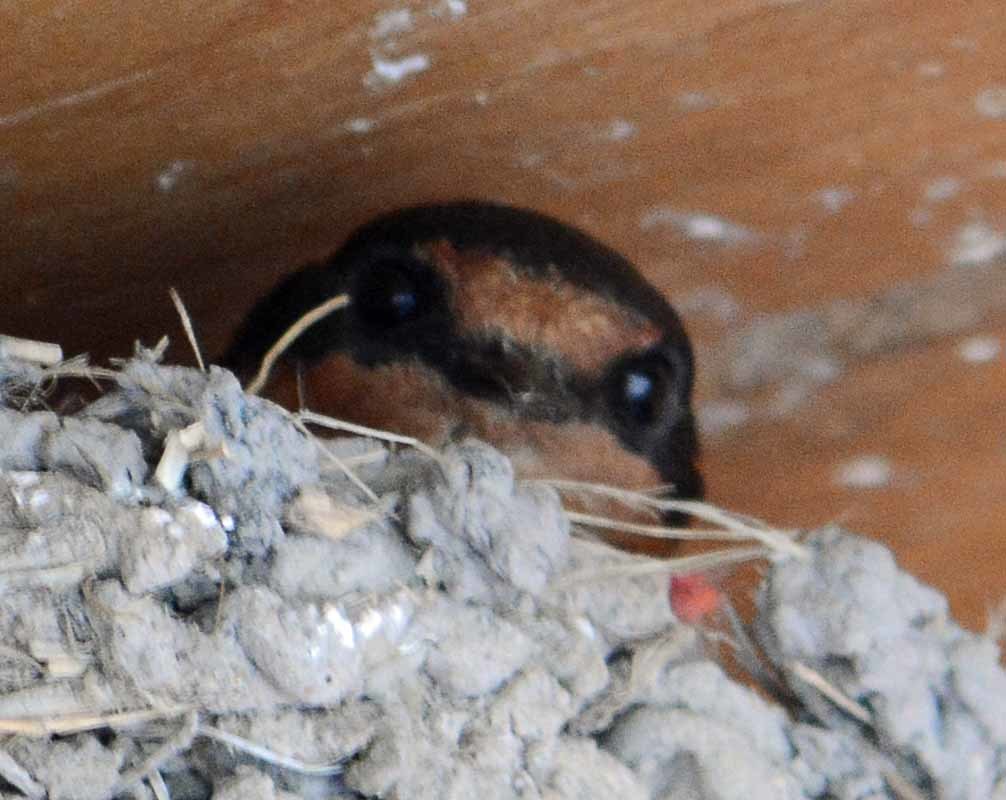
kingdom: Animalia
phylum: Chordata
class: Aves
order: Passeriformes
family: Hirundinidae
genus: Hirundo
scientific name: Hirundo rustica
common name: Barn swallow
